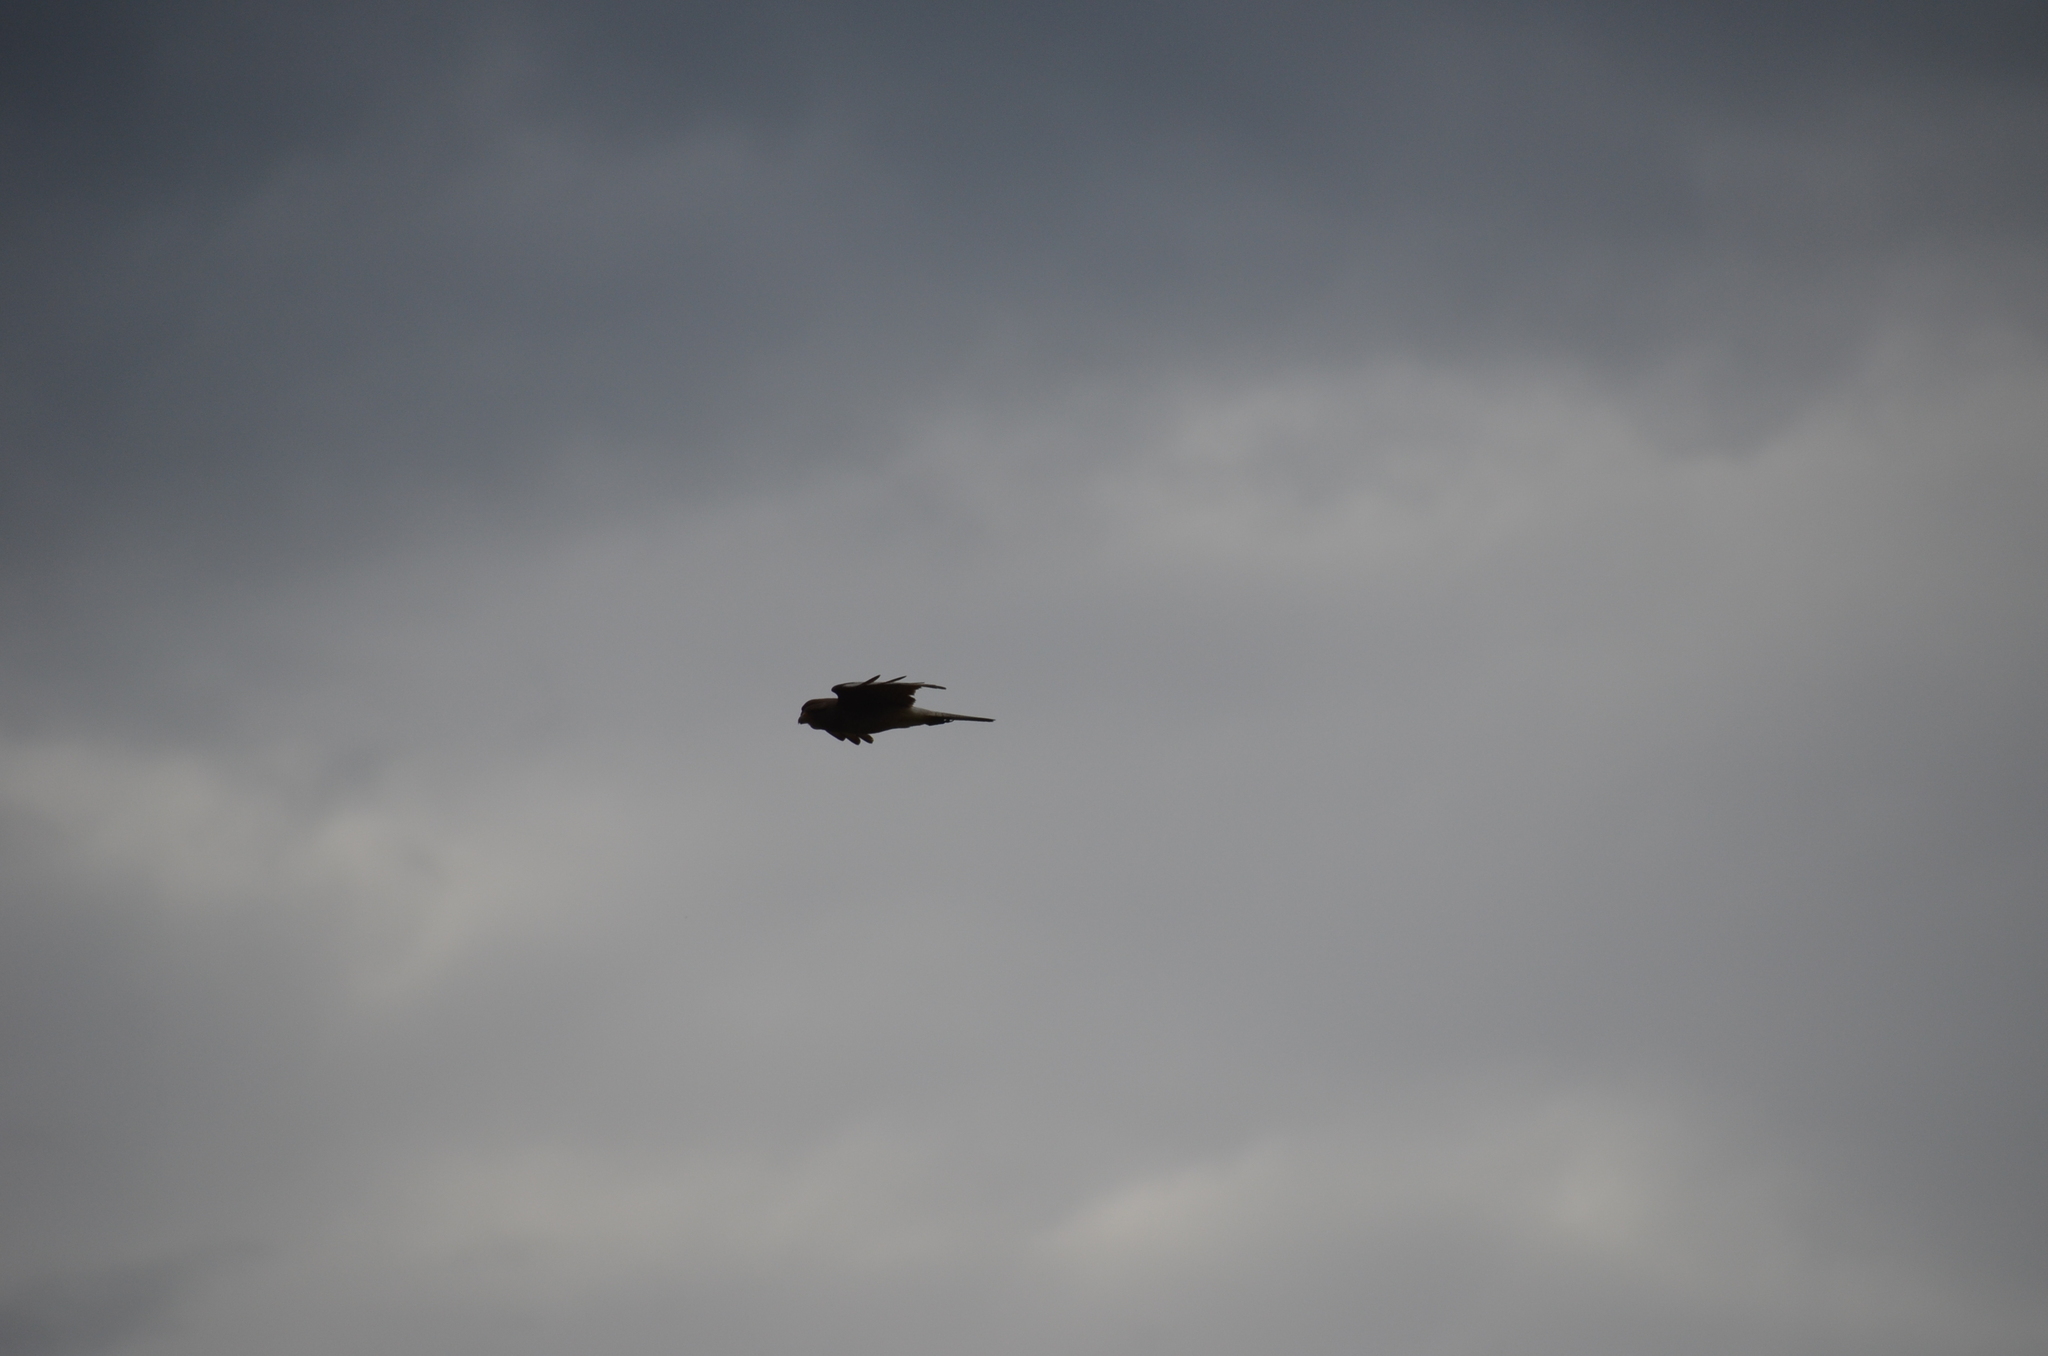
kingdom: Animalia
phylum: Chordata
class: Aves
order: Falconiformes
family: Falconidae
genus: Daptrius
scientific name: Daptrius
